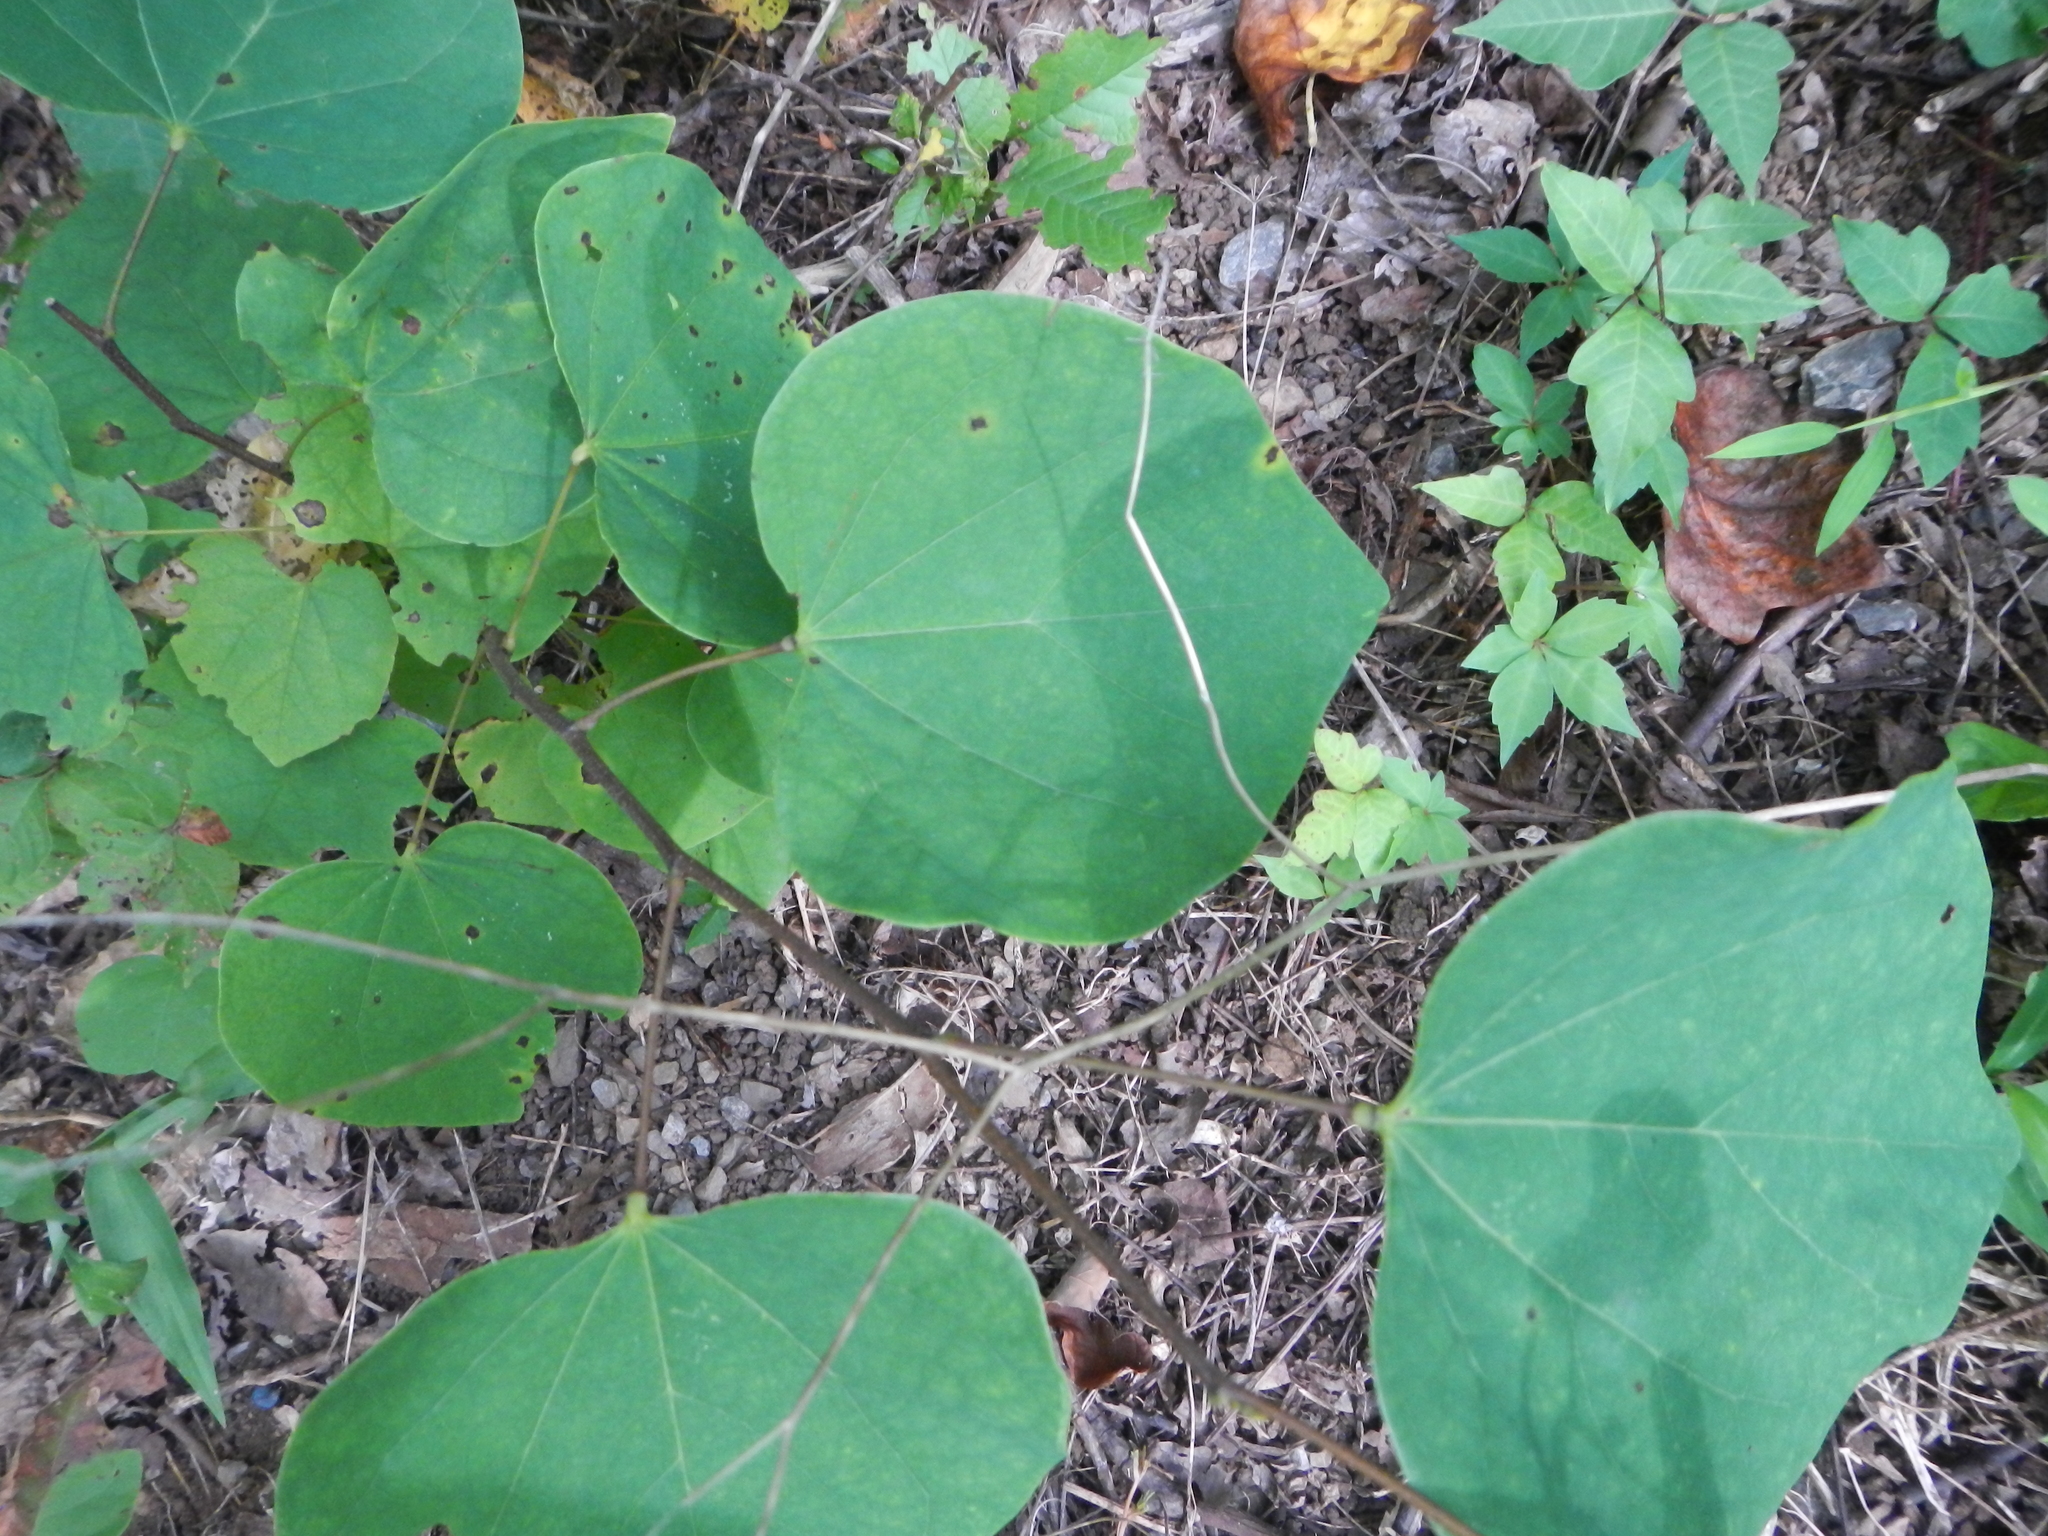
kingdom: Plantae
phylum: Tracheophyta
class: Magnoliopsida
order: Fabales
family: Fabaceae
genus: Cercis
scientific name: Cercis canadensis
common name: Eastern redbud
